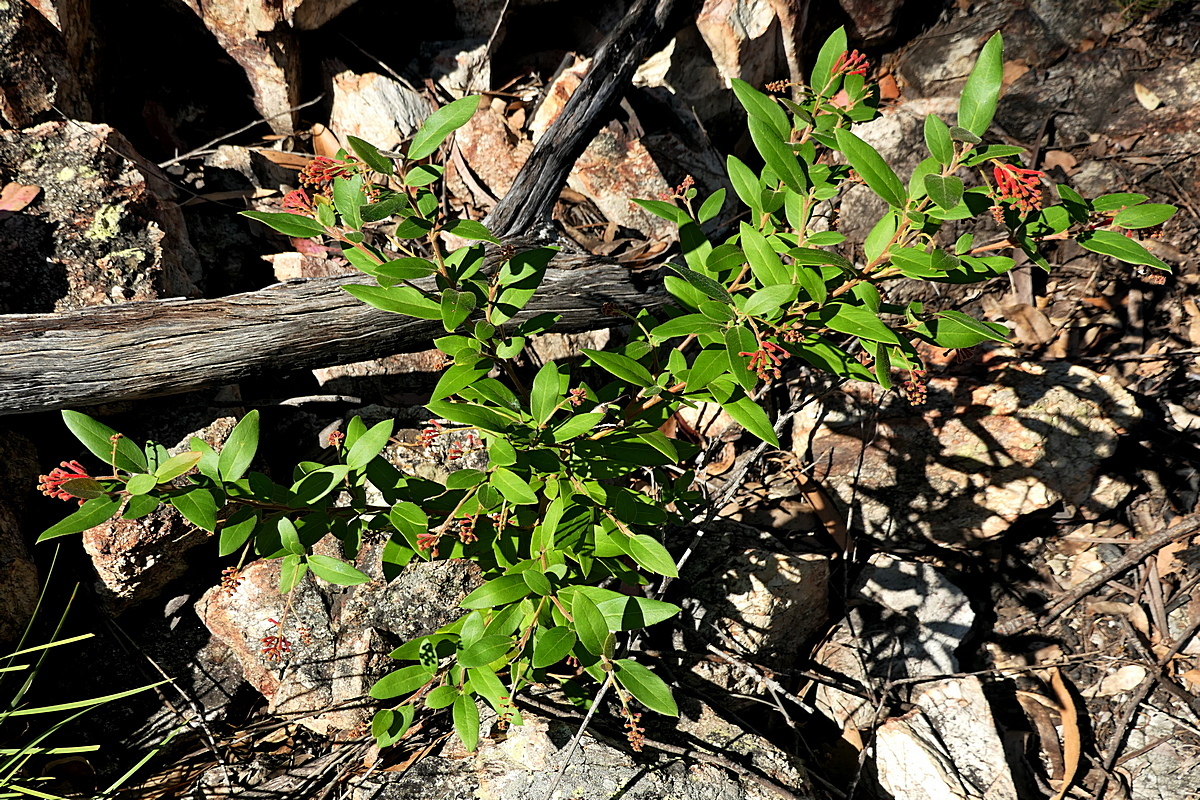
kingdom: Plantae
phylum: Tracheophyta
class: Magnoliopsida
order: Proteales
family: Proteaceae
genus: Grevillea
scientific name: Grevillea rhyolitica
